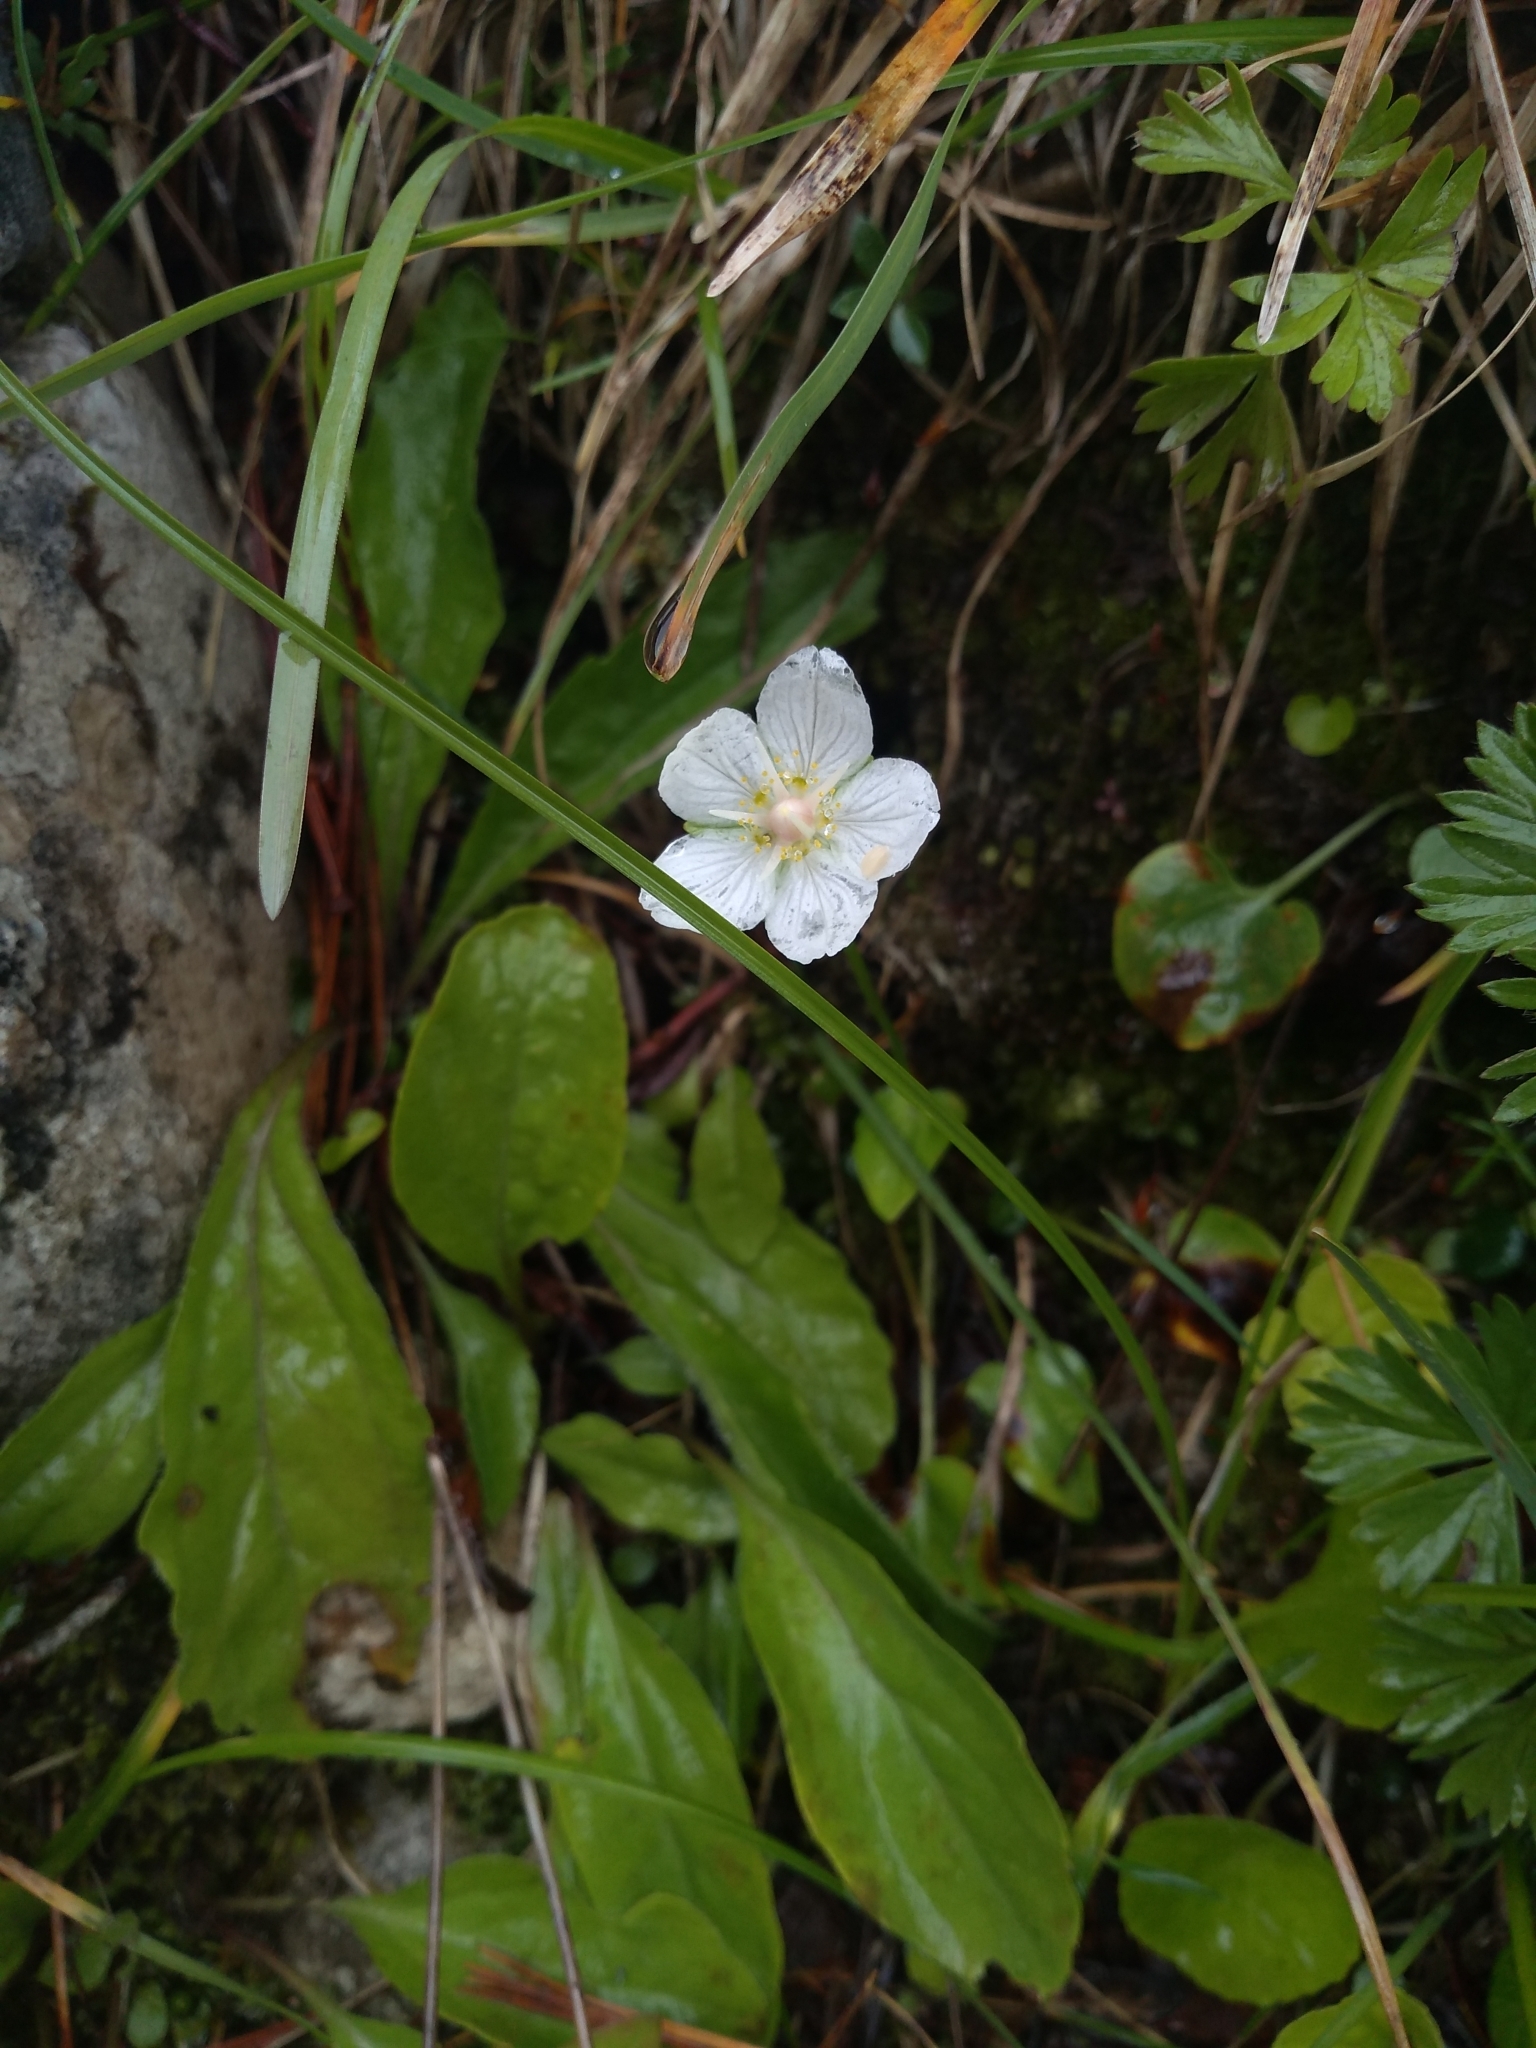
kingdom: Plantae
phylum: Tracheophyta
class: Magnoliopsida
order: Celastrales
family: Parnassiaceae
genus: Parnassia
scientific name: Parnassia palustris
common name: Grass-of-parnassus
